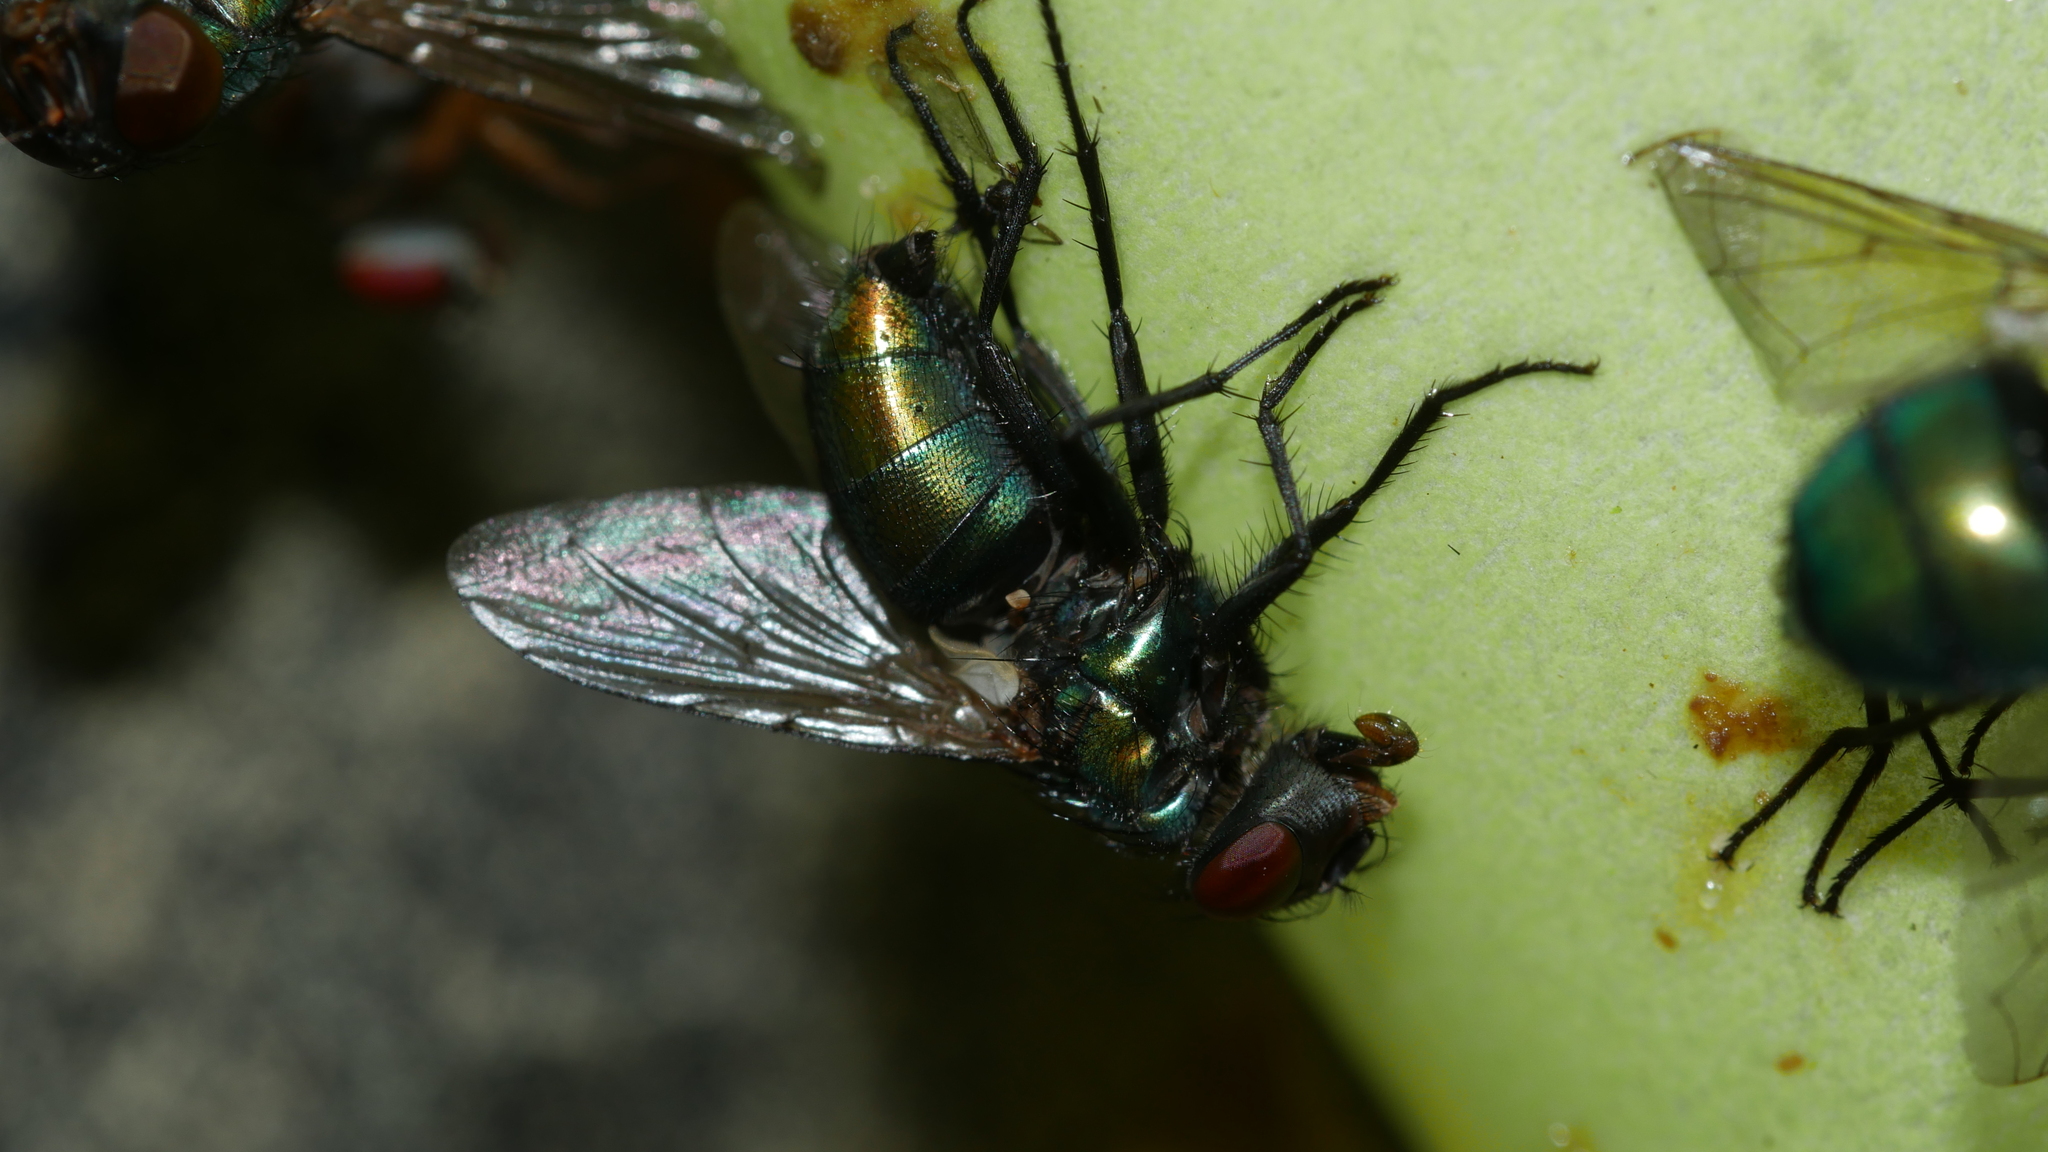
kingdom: Animalia
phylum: Arthropoda
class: Insecta
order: Diptera
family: Calliphoridae
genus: Lucilia
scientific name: Lucilia caeruleiviridis
